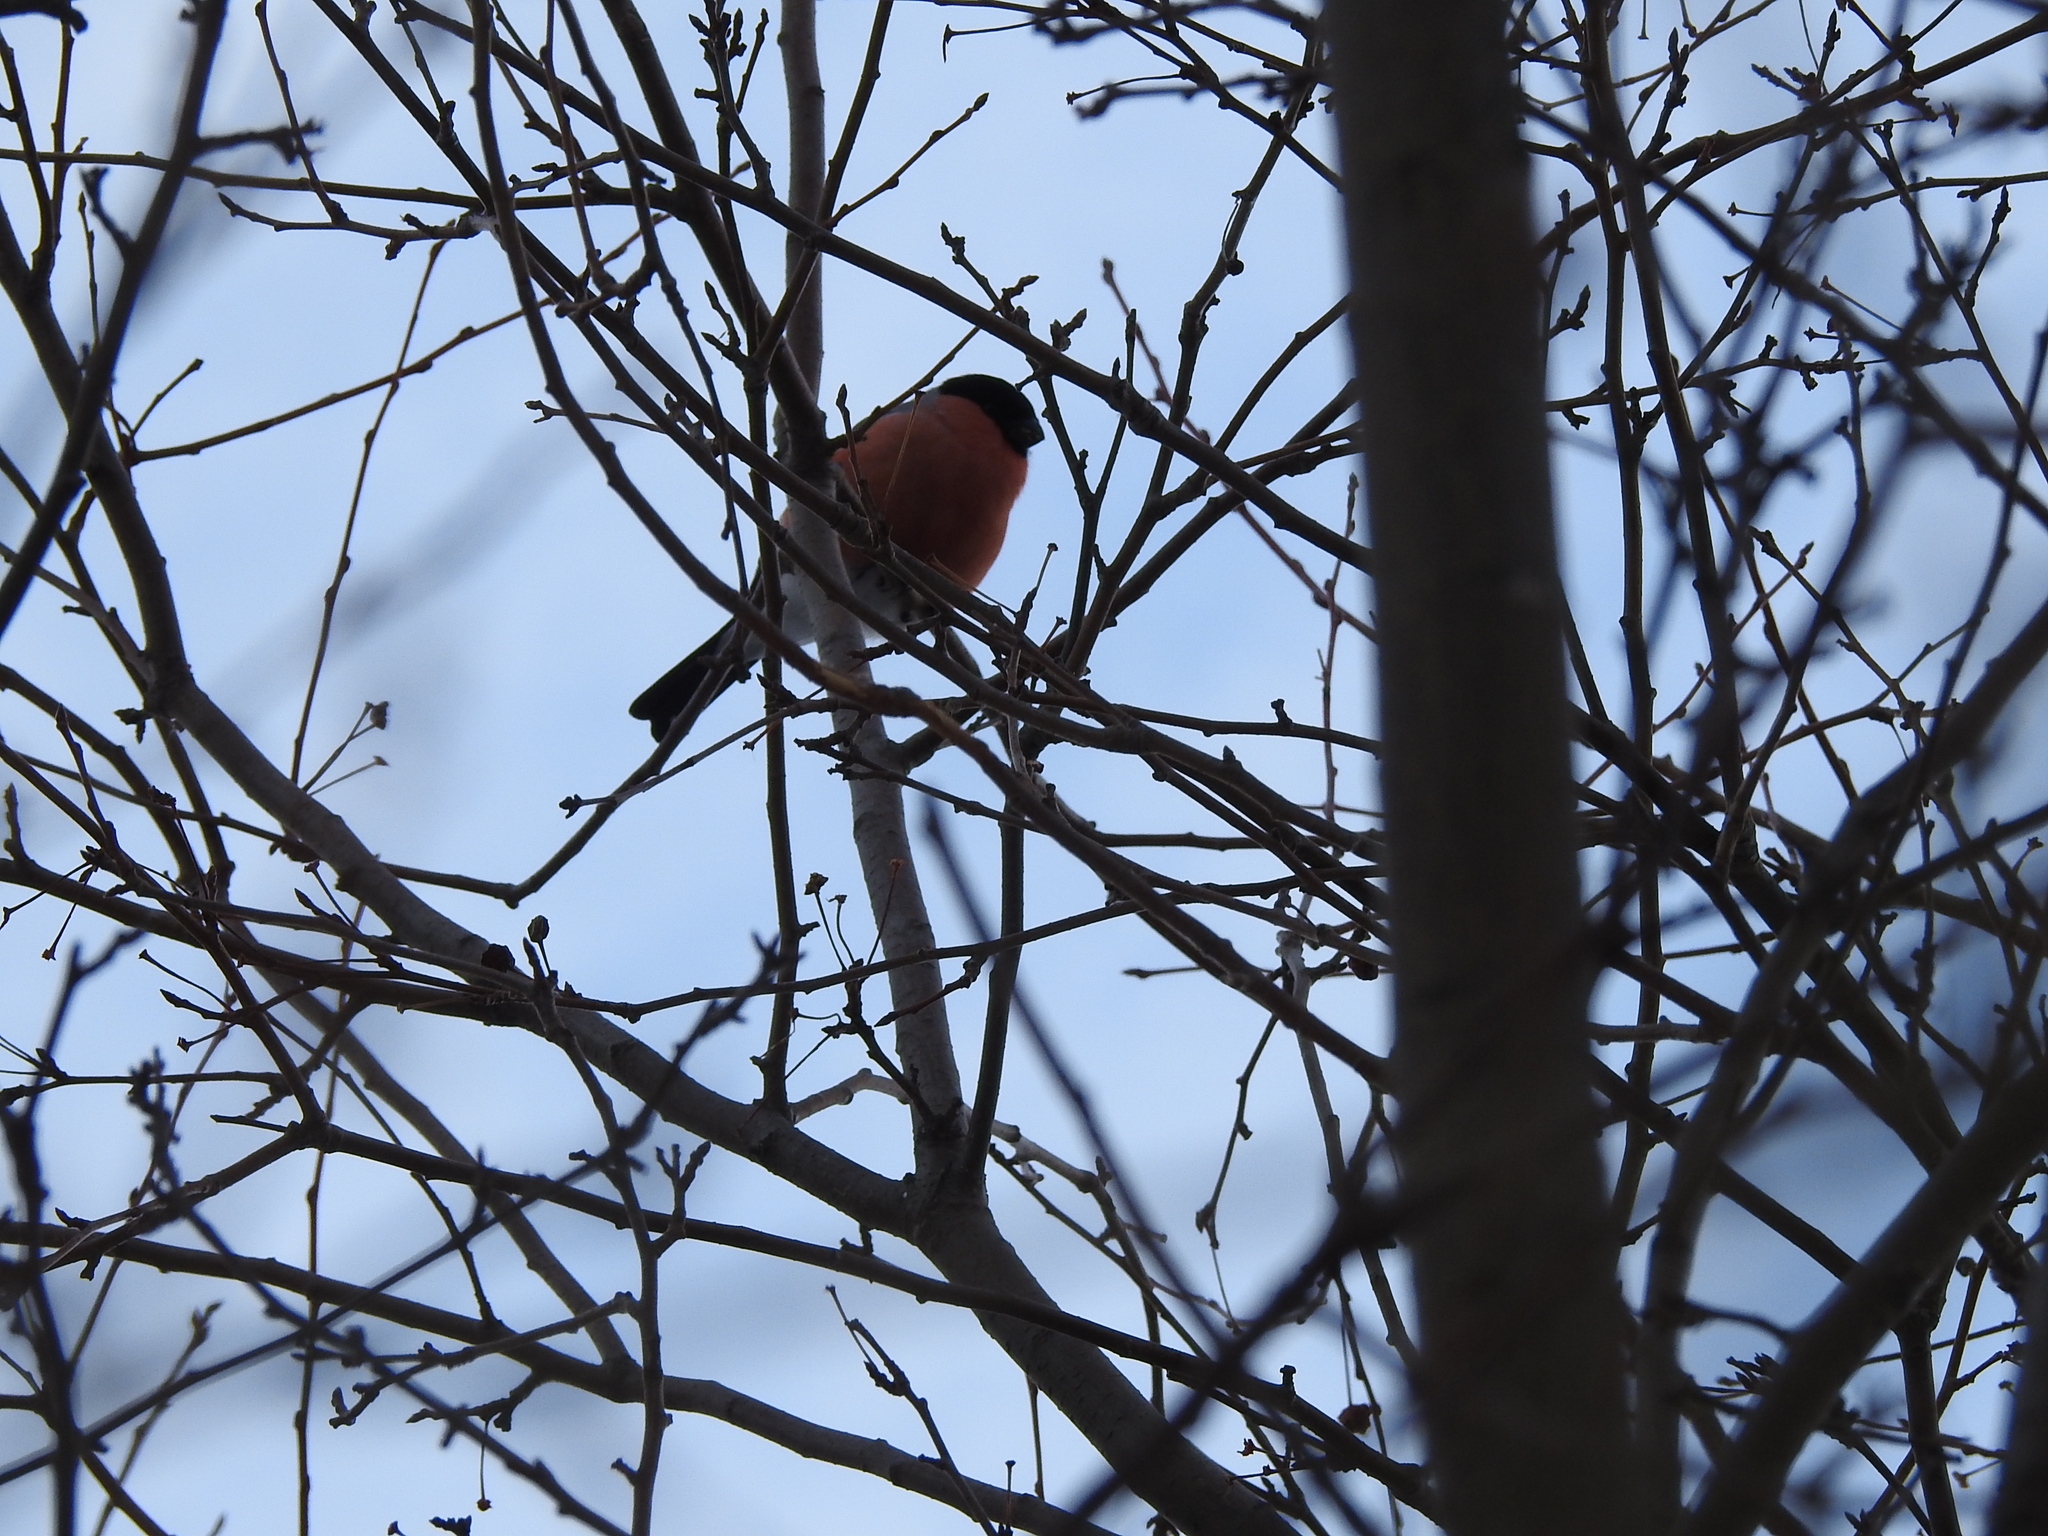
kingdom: Animalia
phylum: Chordata
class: Aves
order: Passeriformes
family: Fringillidae
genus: Pyrrhula
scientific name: Pyrrhula pyrrhula
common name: Eurasian bullfinch
